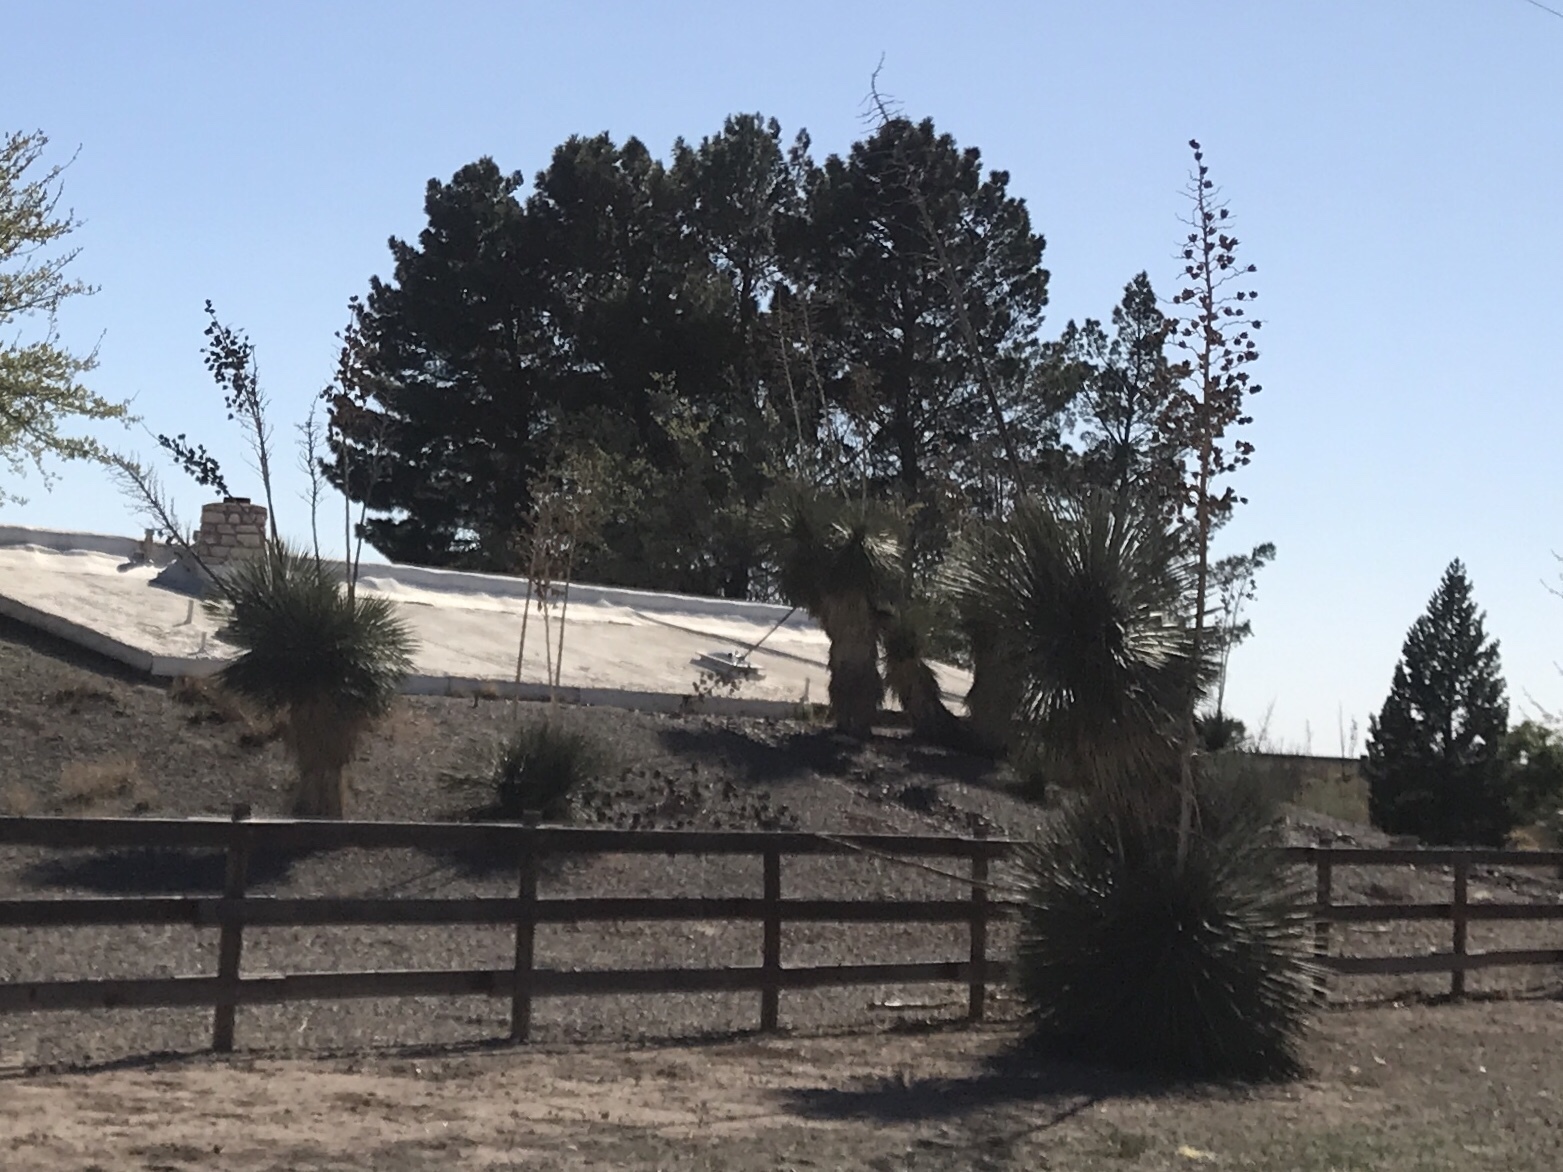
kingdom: Plantae
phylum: Tracheophyta
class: Liliopsida
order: Asparagales
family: Asparagaceae
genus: Yucca
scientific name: Yucca elata
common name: Palmella
